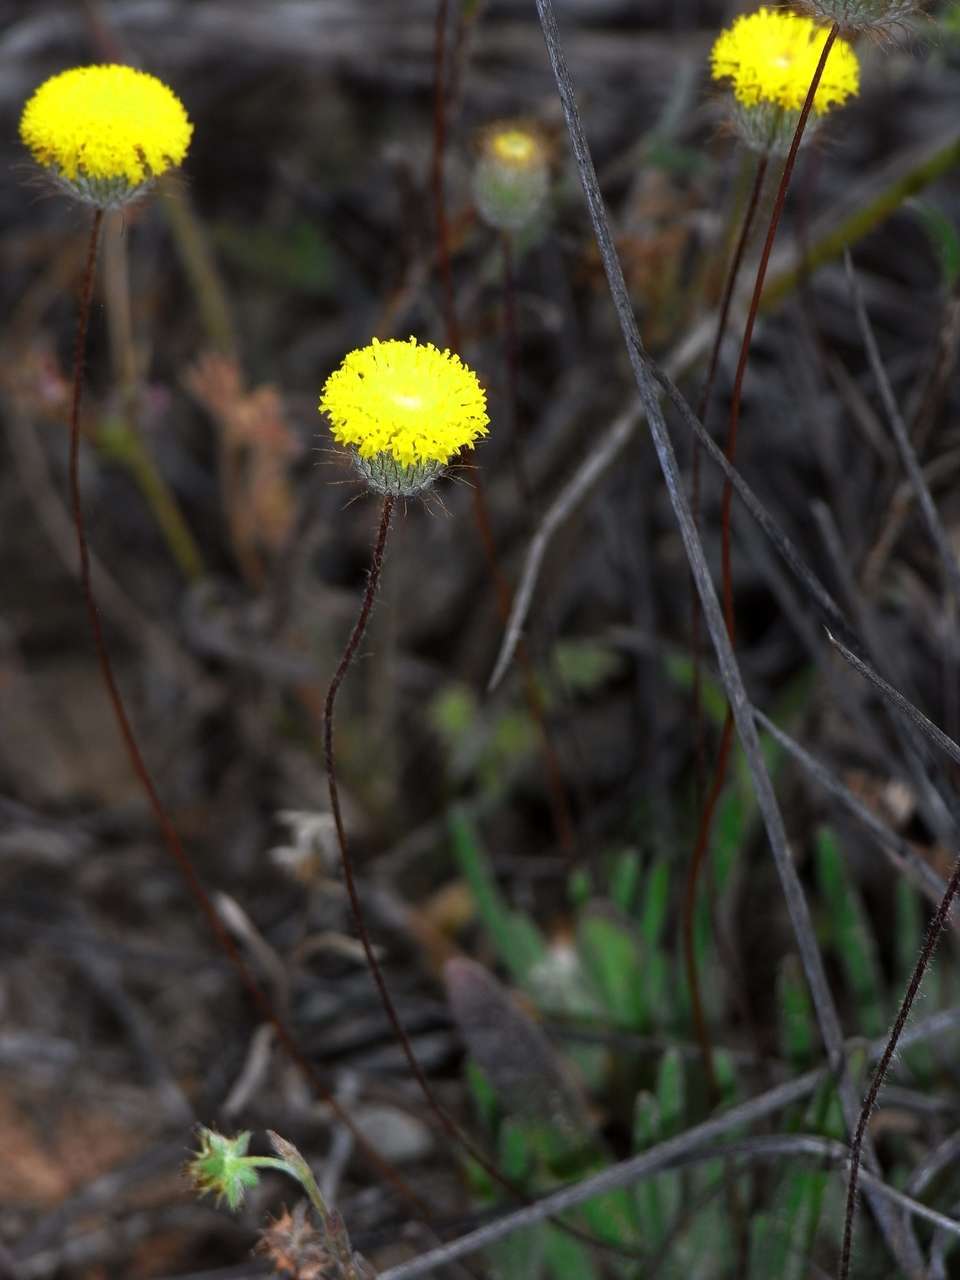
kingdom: Plantae
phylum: Tracheophyta
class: Magnoliopsida
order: Asterales
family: Asteraceae
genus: Asteridea
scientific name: Asteridea athrixioides
